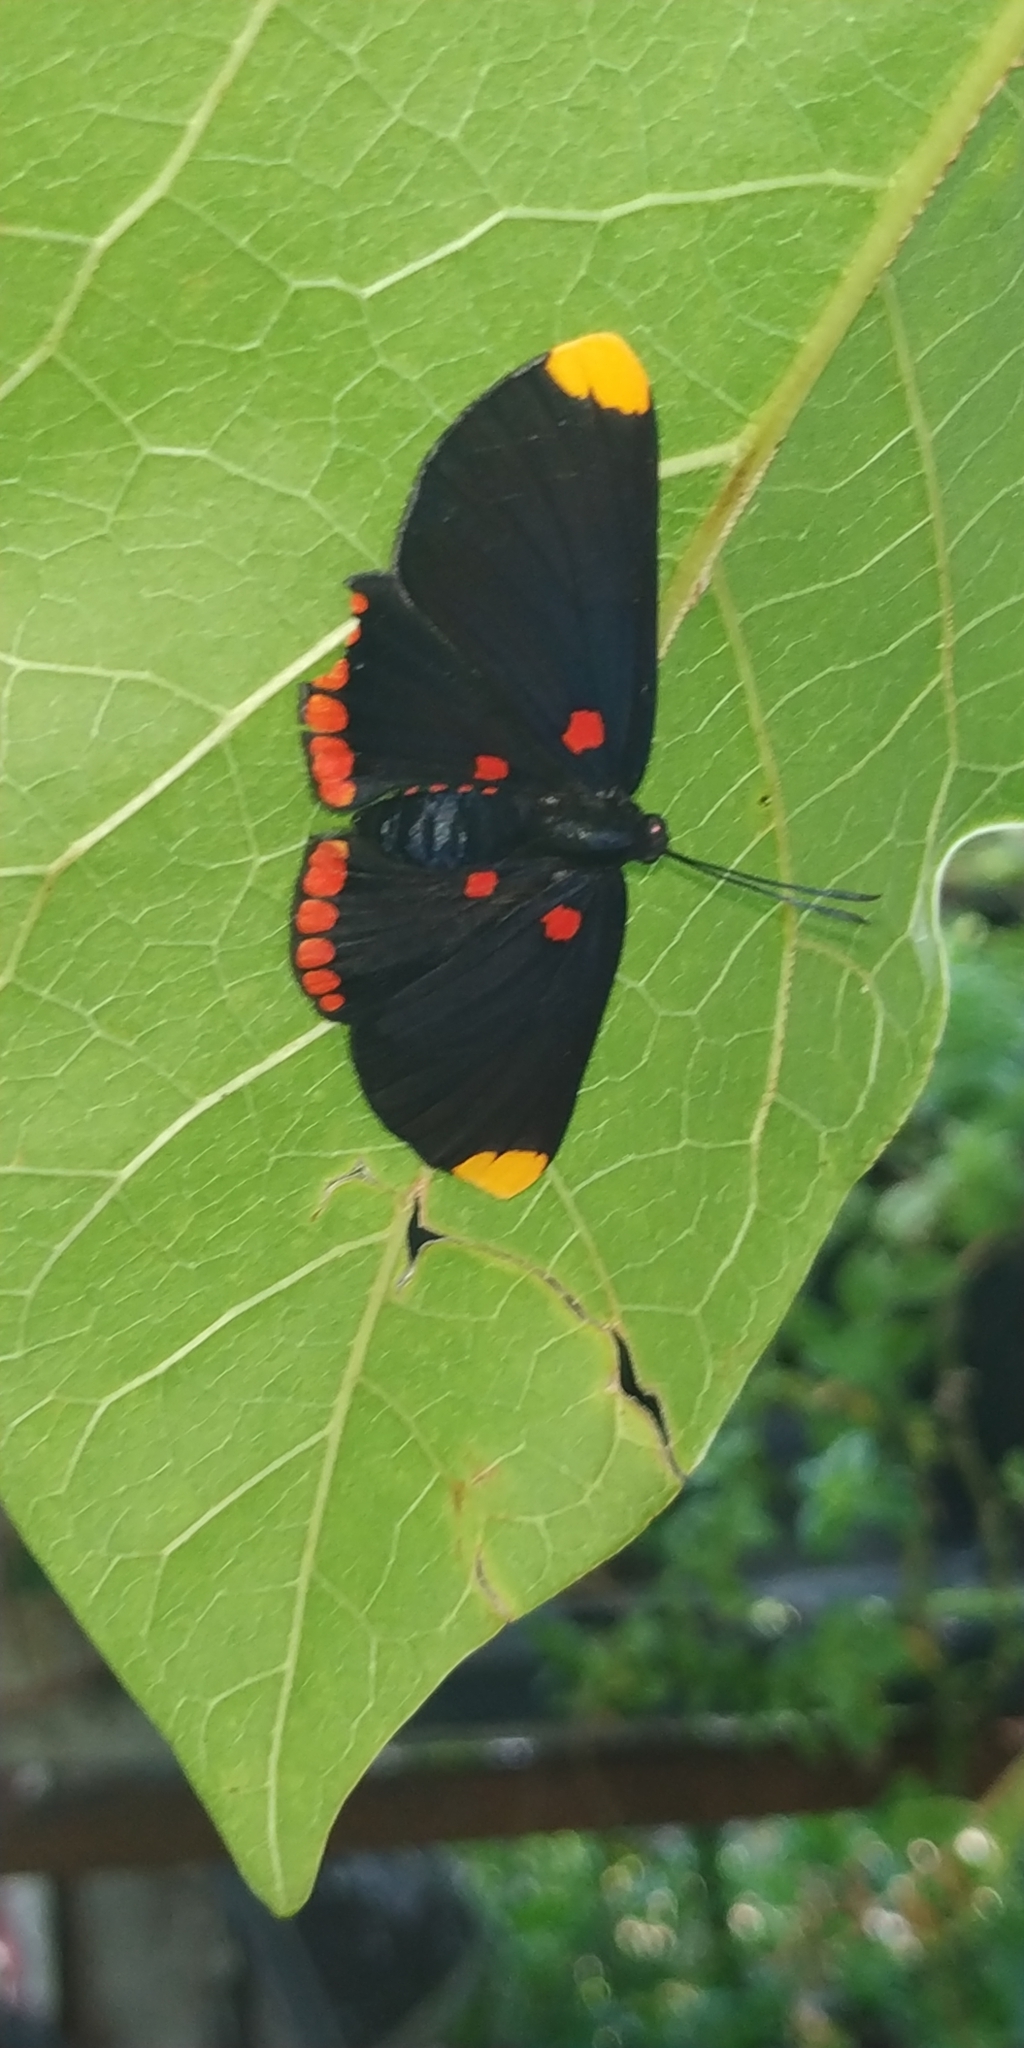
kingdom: Animalia
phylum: Arthropoda
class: Insecta
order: Lepidoptera
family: Lycaenidae
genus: Melanis
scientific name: Melanis pixe
